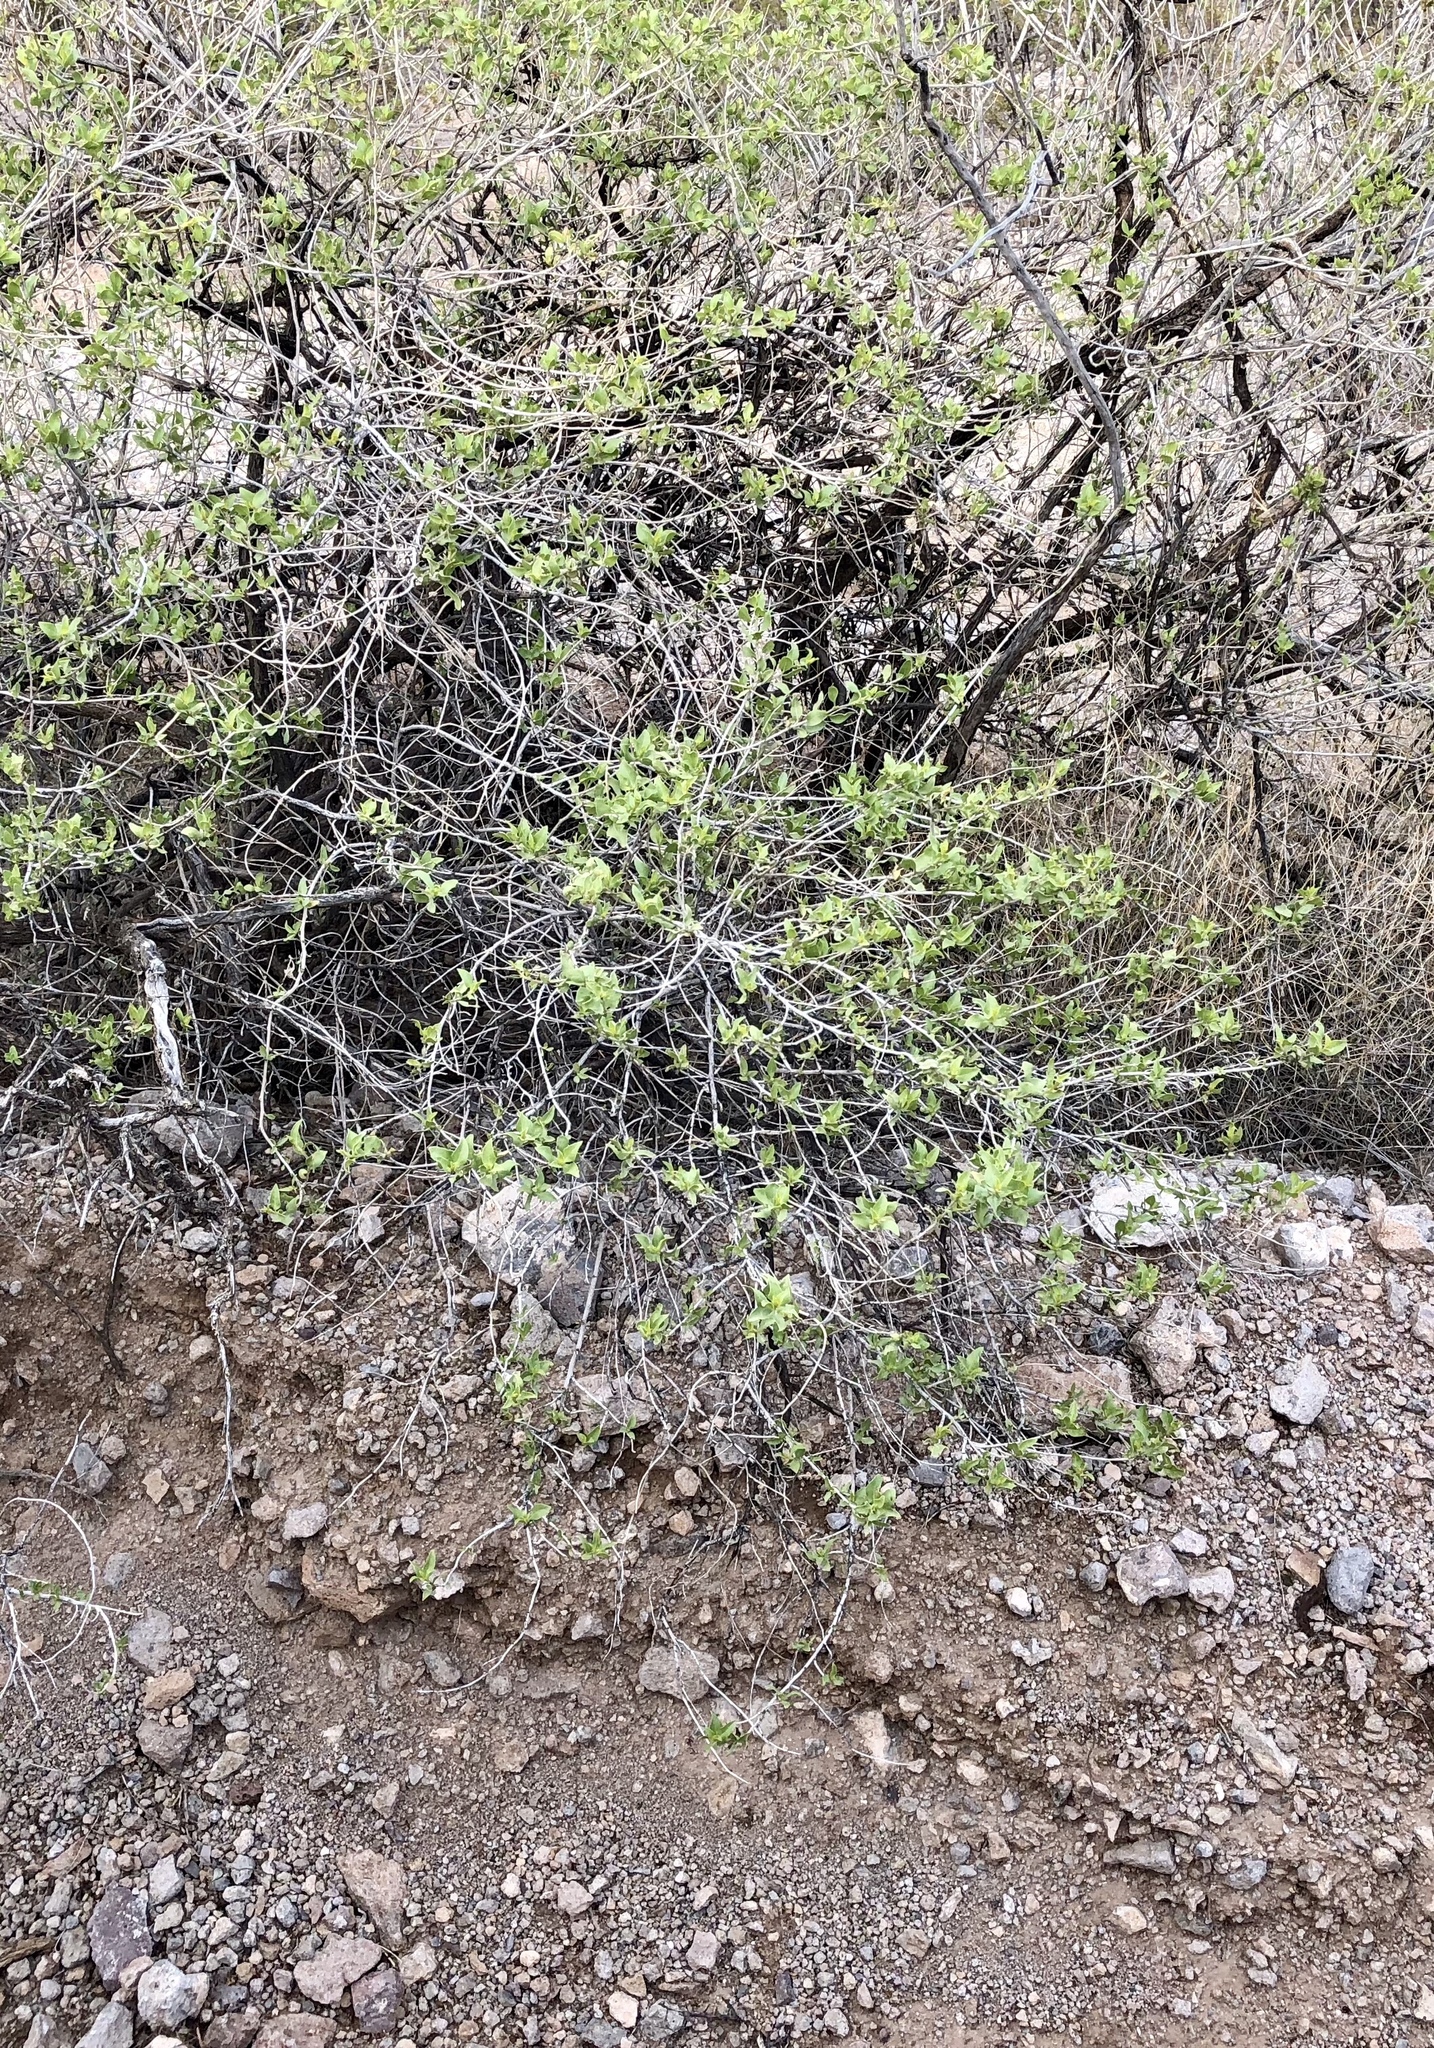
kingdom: Plantae
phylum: Tracheophyta
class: Magnoliopsida
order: Asterales
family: Asteraceae
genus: Flourensia
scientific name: Flourensia cernua
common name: Varnishbush
